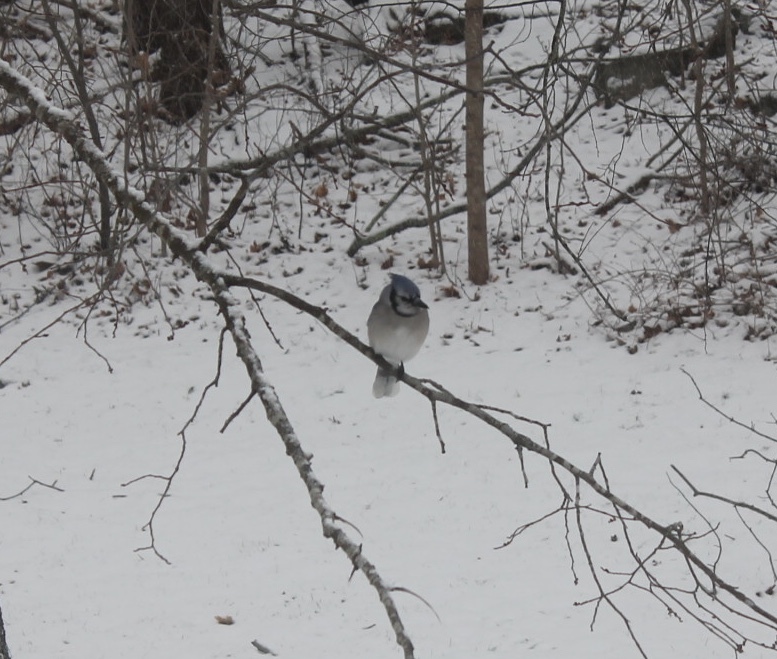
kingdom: Animalia
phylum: Chordata
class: Aves
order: Passeriformes
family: Corvidae
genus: Cyanocitta
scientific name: Cyanocitta cristata
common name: Blue jay
